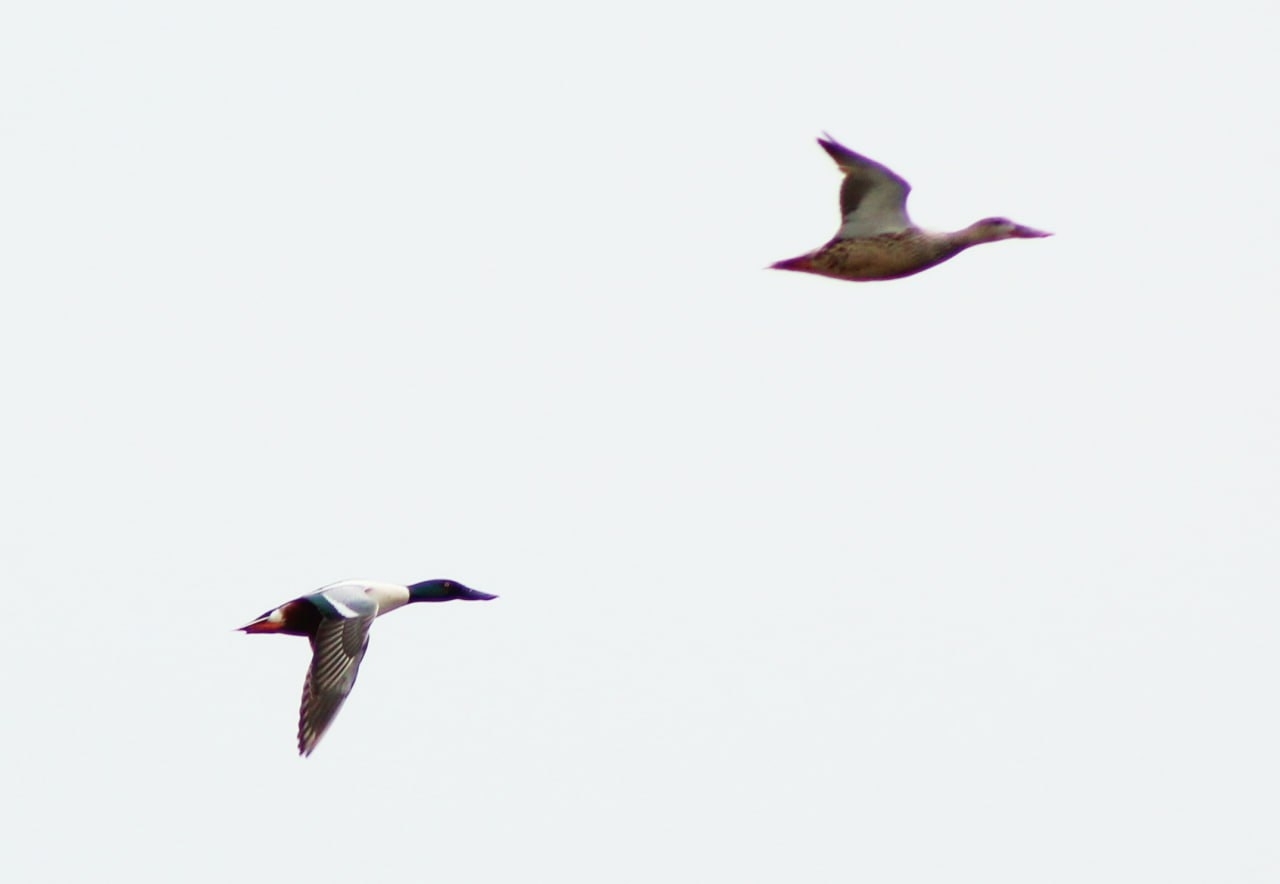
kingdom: Animalia
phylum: Chordata
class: Aves
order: Anseriformes
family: Anatidae
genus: Spatula
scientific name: Spatula clypeata
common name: Northern shoveler
